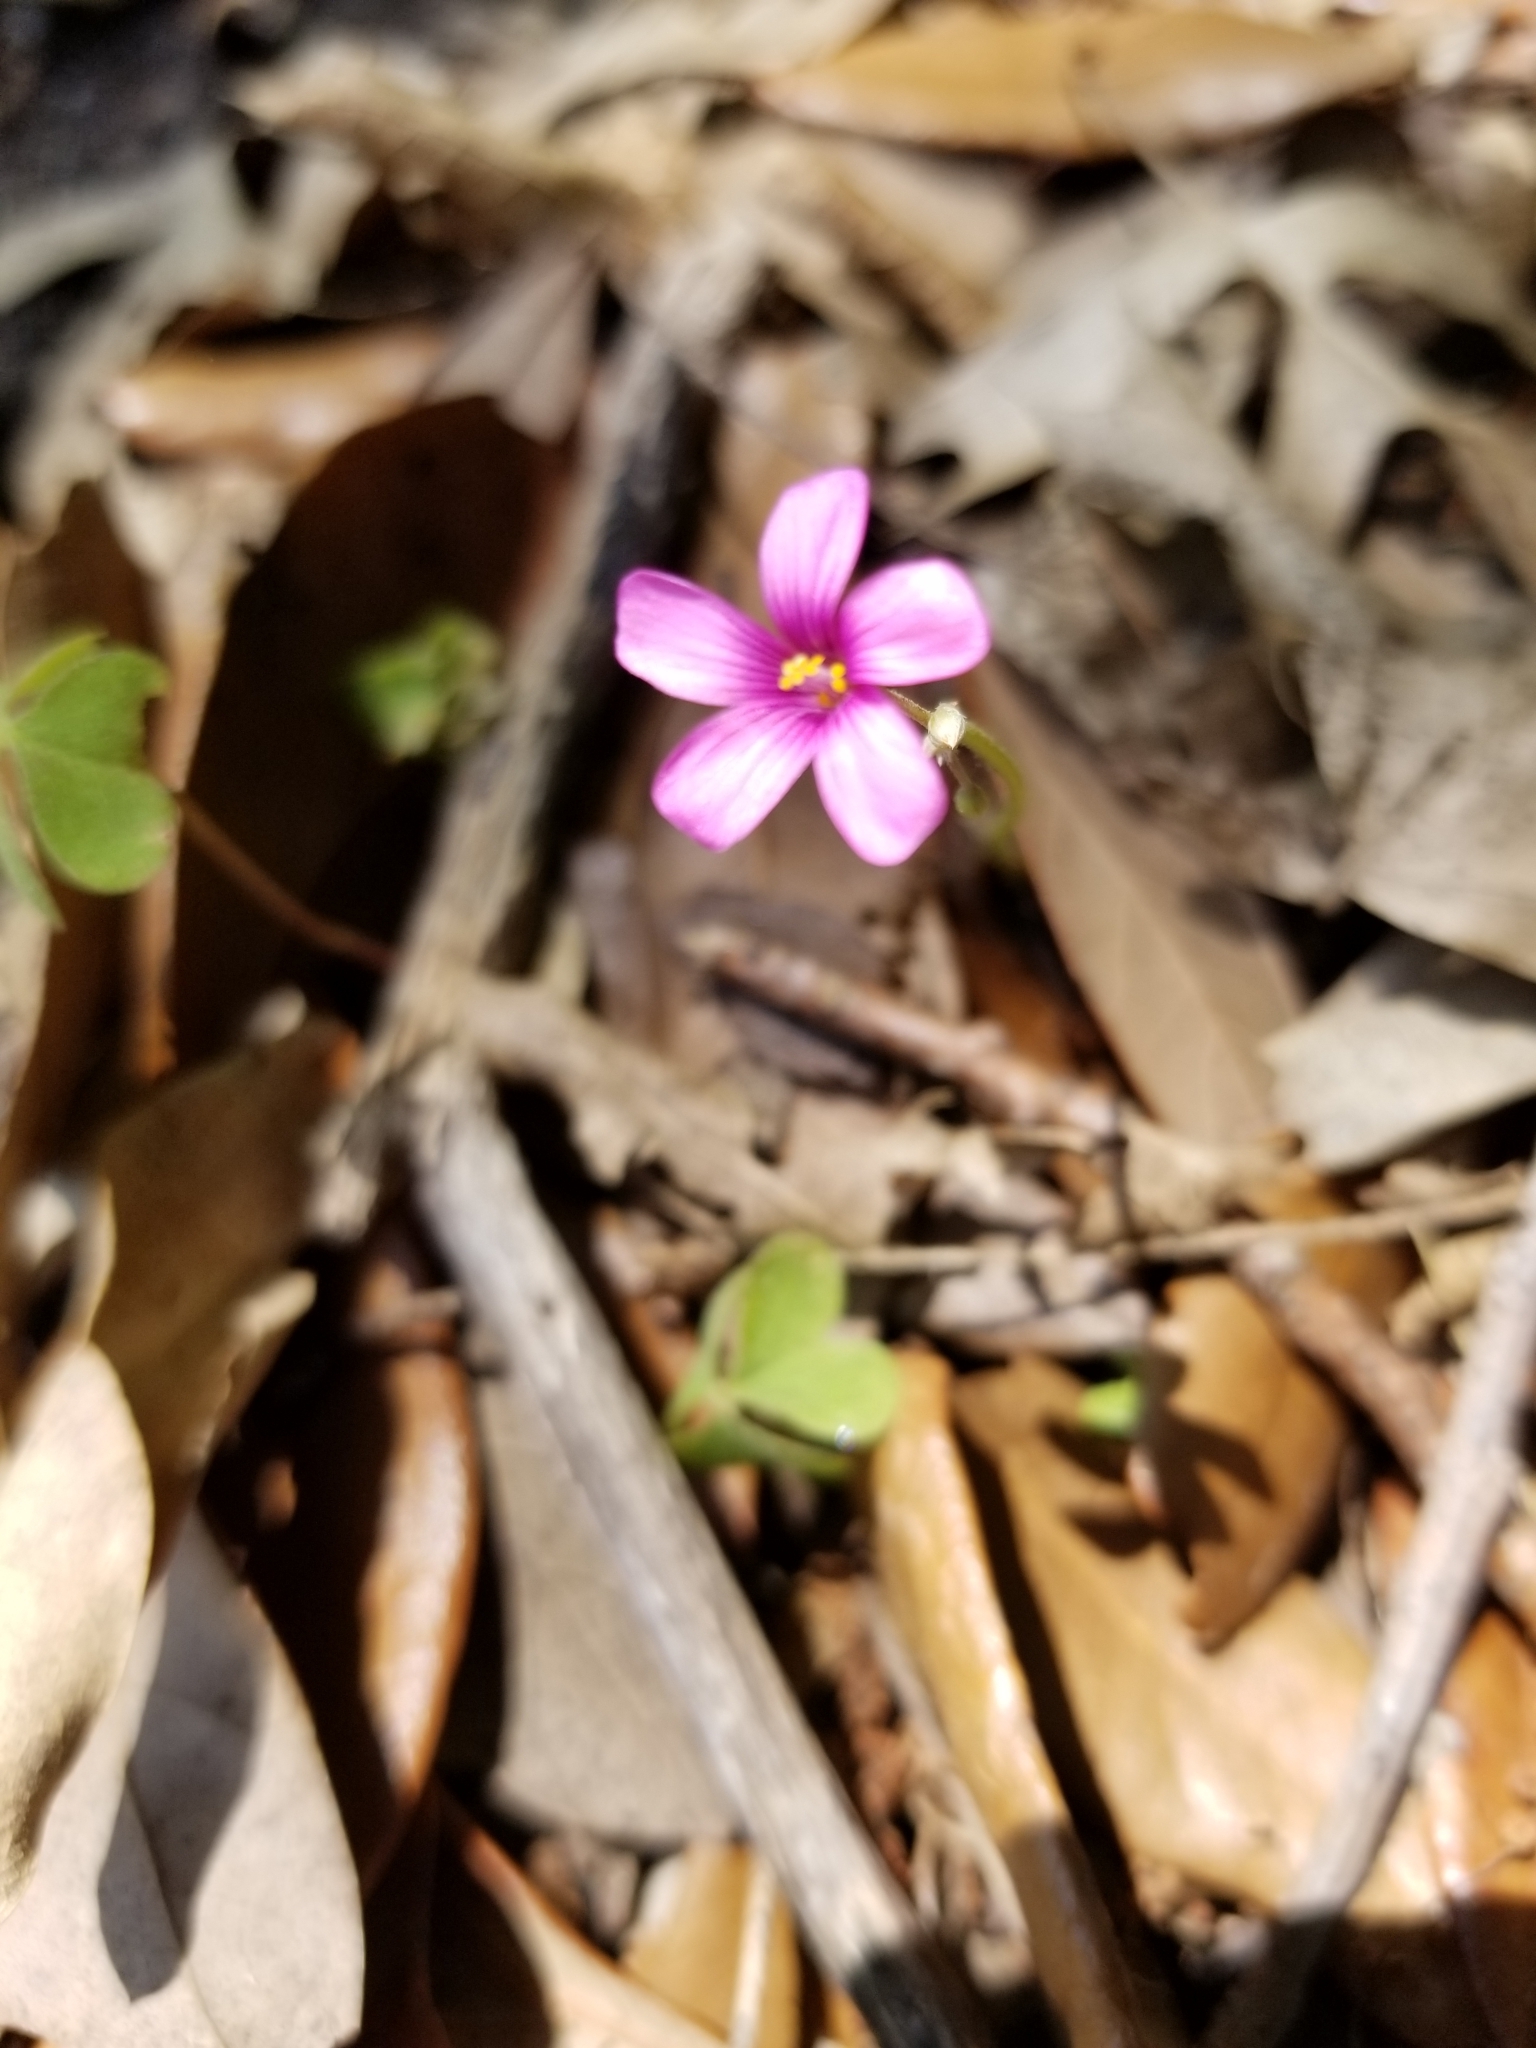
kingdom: Plantae
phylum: Tracheophyta
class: Magnoliopsida
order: Oxalidales
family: Oxalidaceae
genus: Oxalis
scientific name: Oxalis articulata
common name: Pink-sorrel
